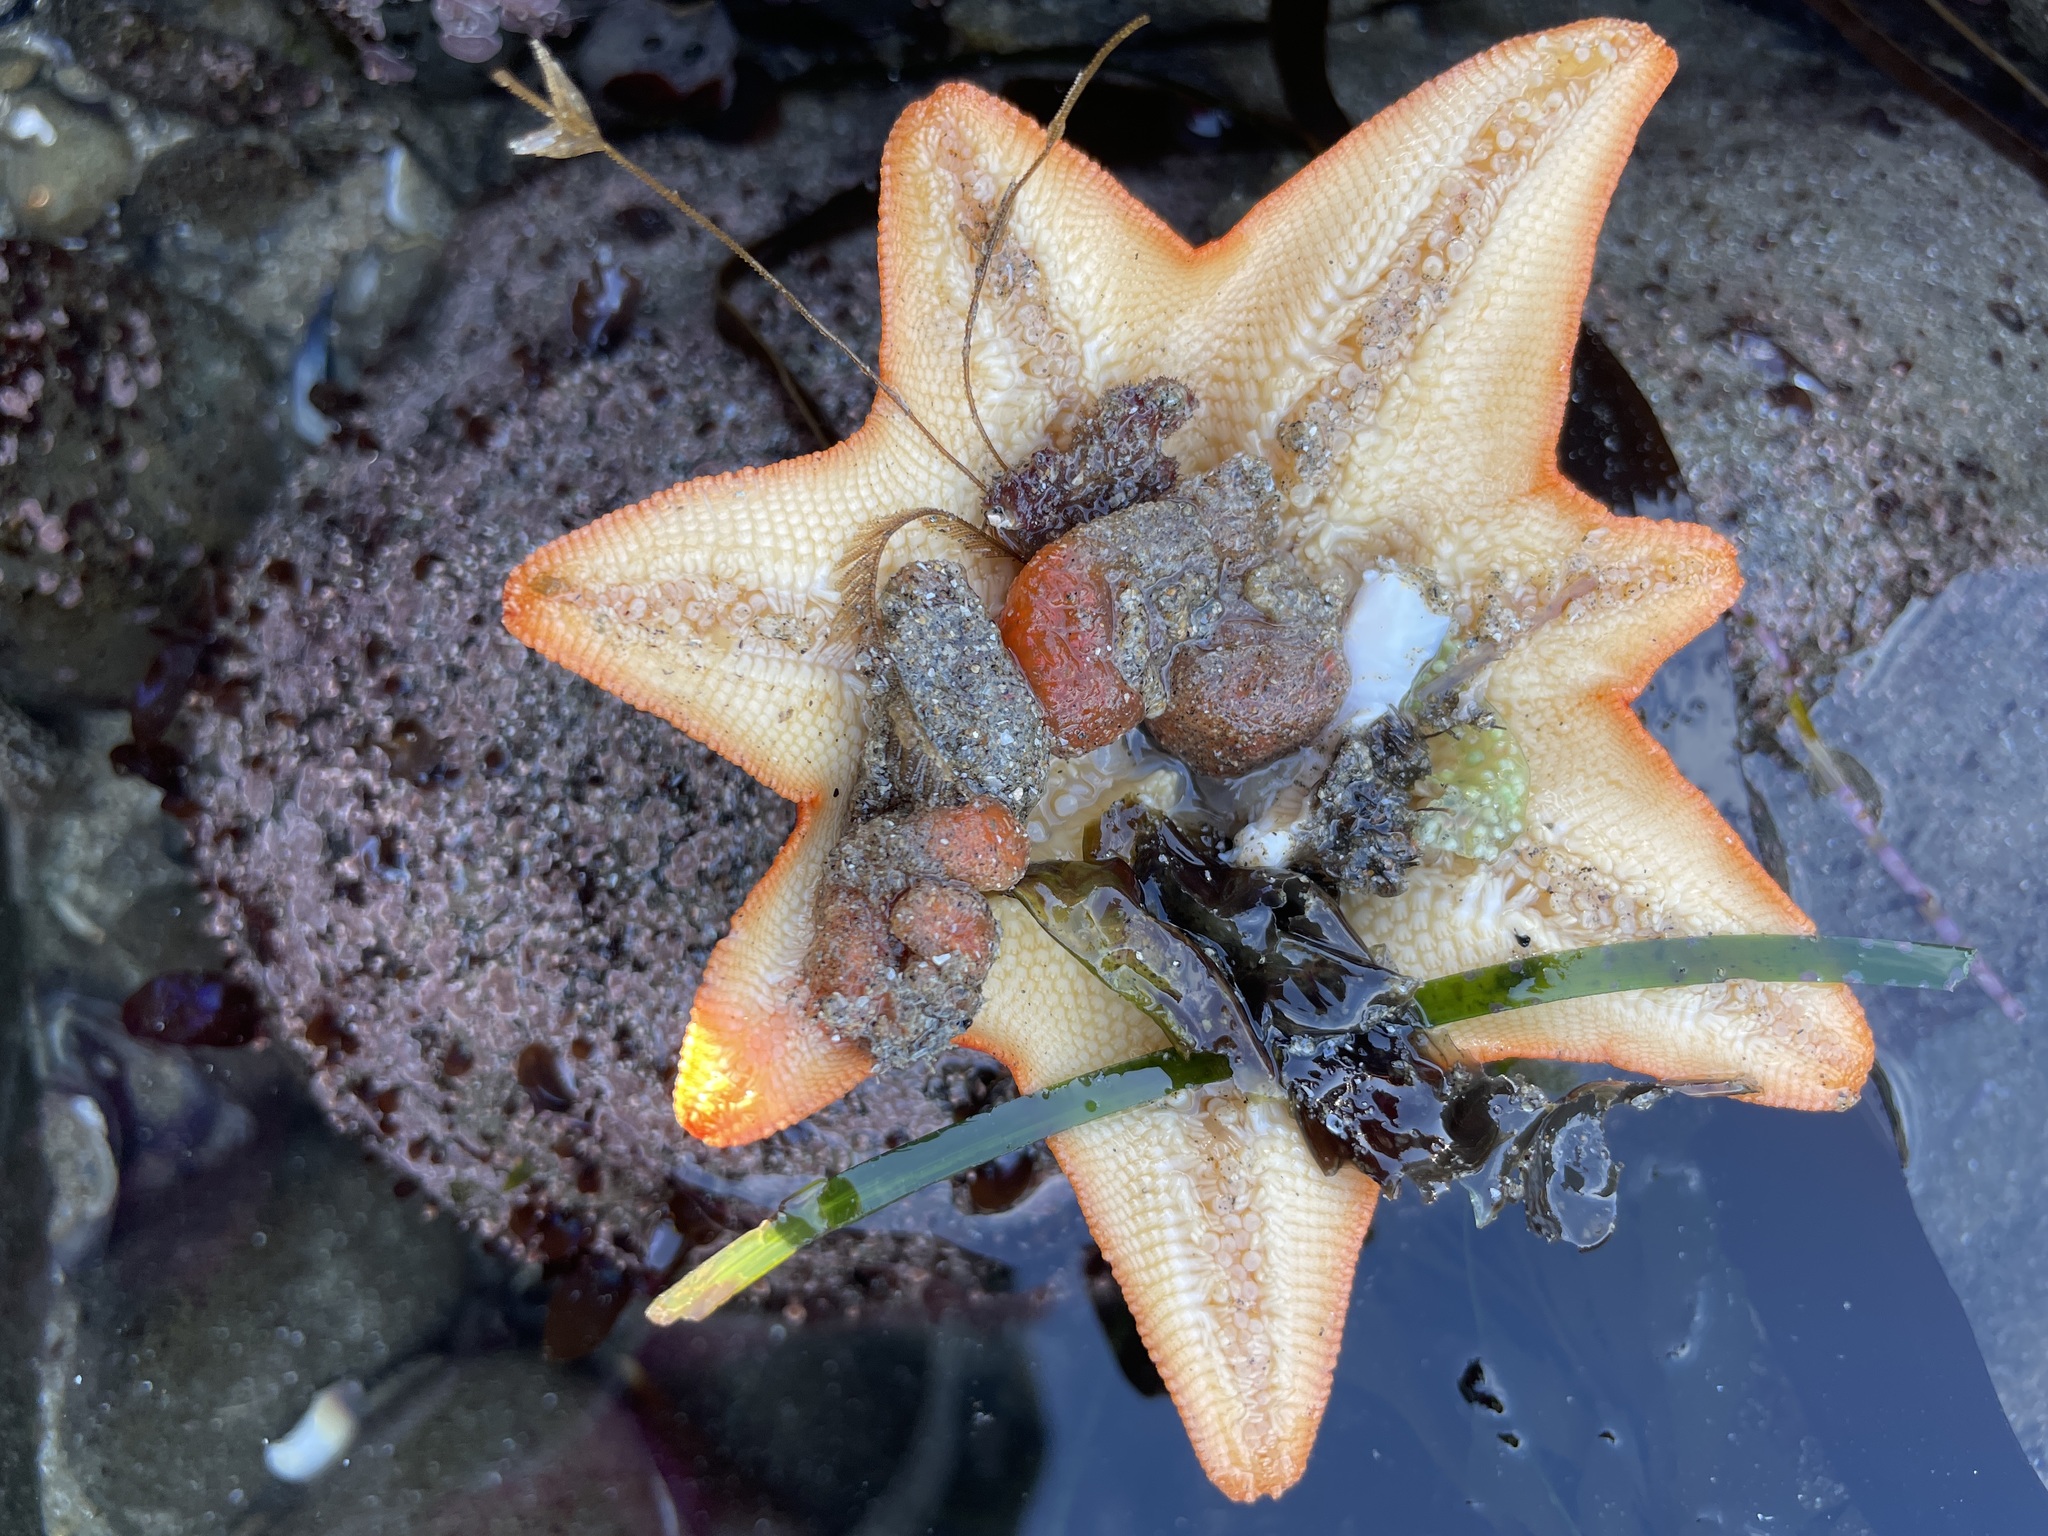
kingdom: Animalia
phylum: Echinodermata
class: Asteroidea
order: Valvatida
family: Asterinidae
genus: Patiria
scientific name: Patiria miniata
